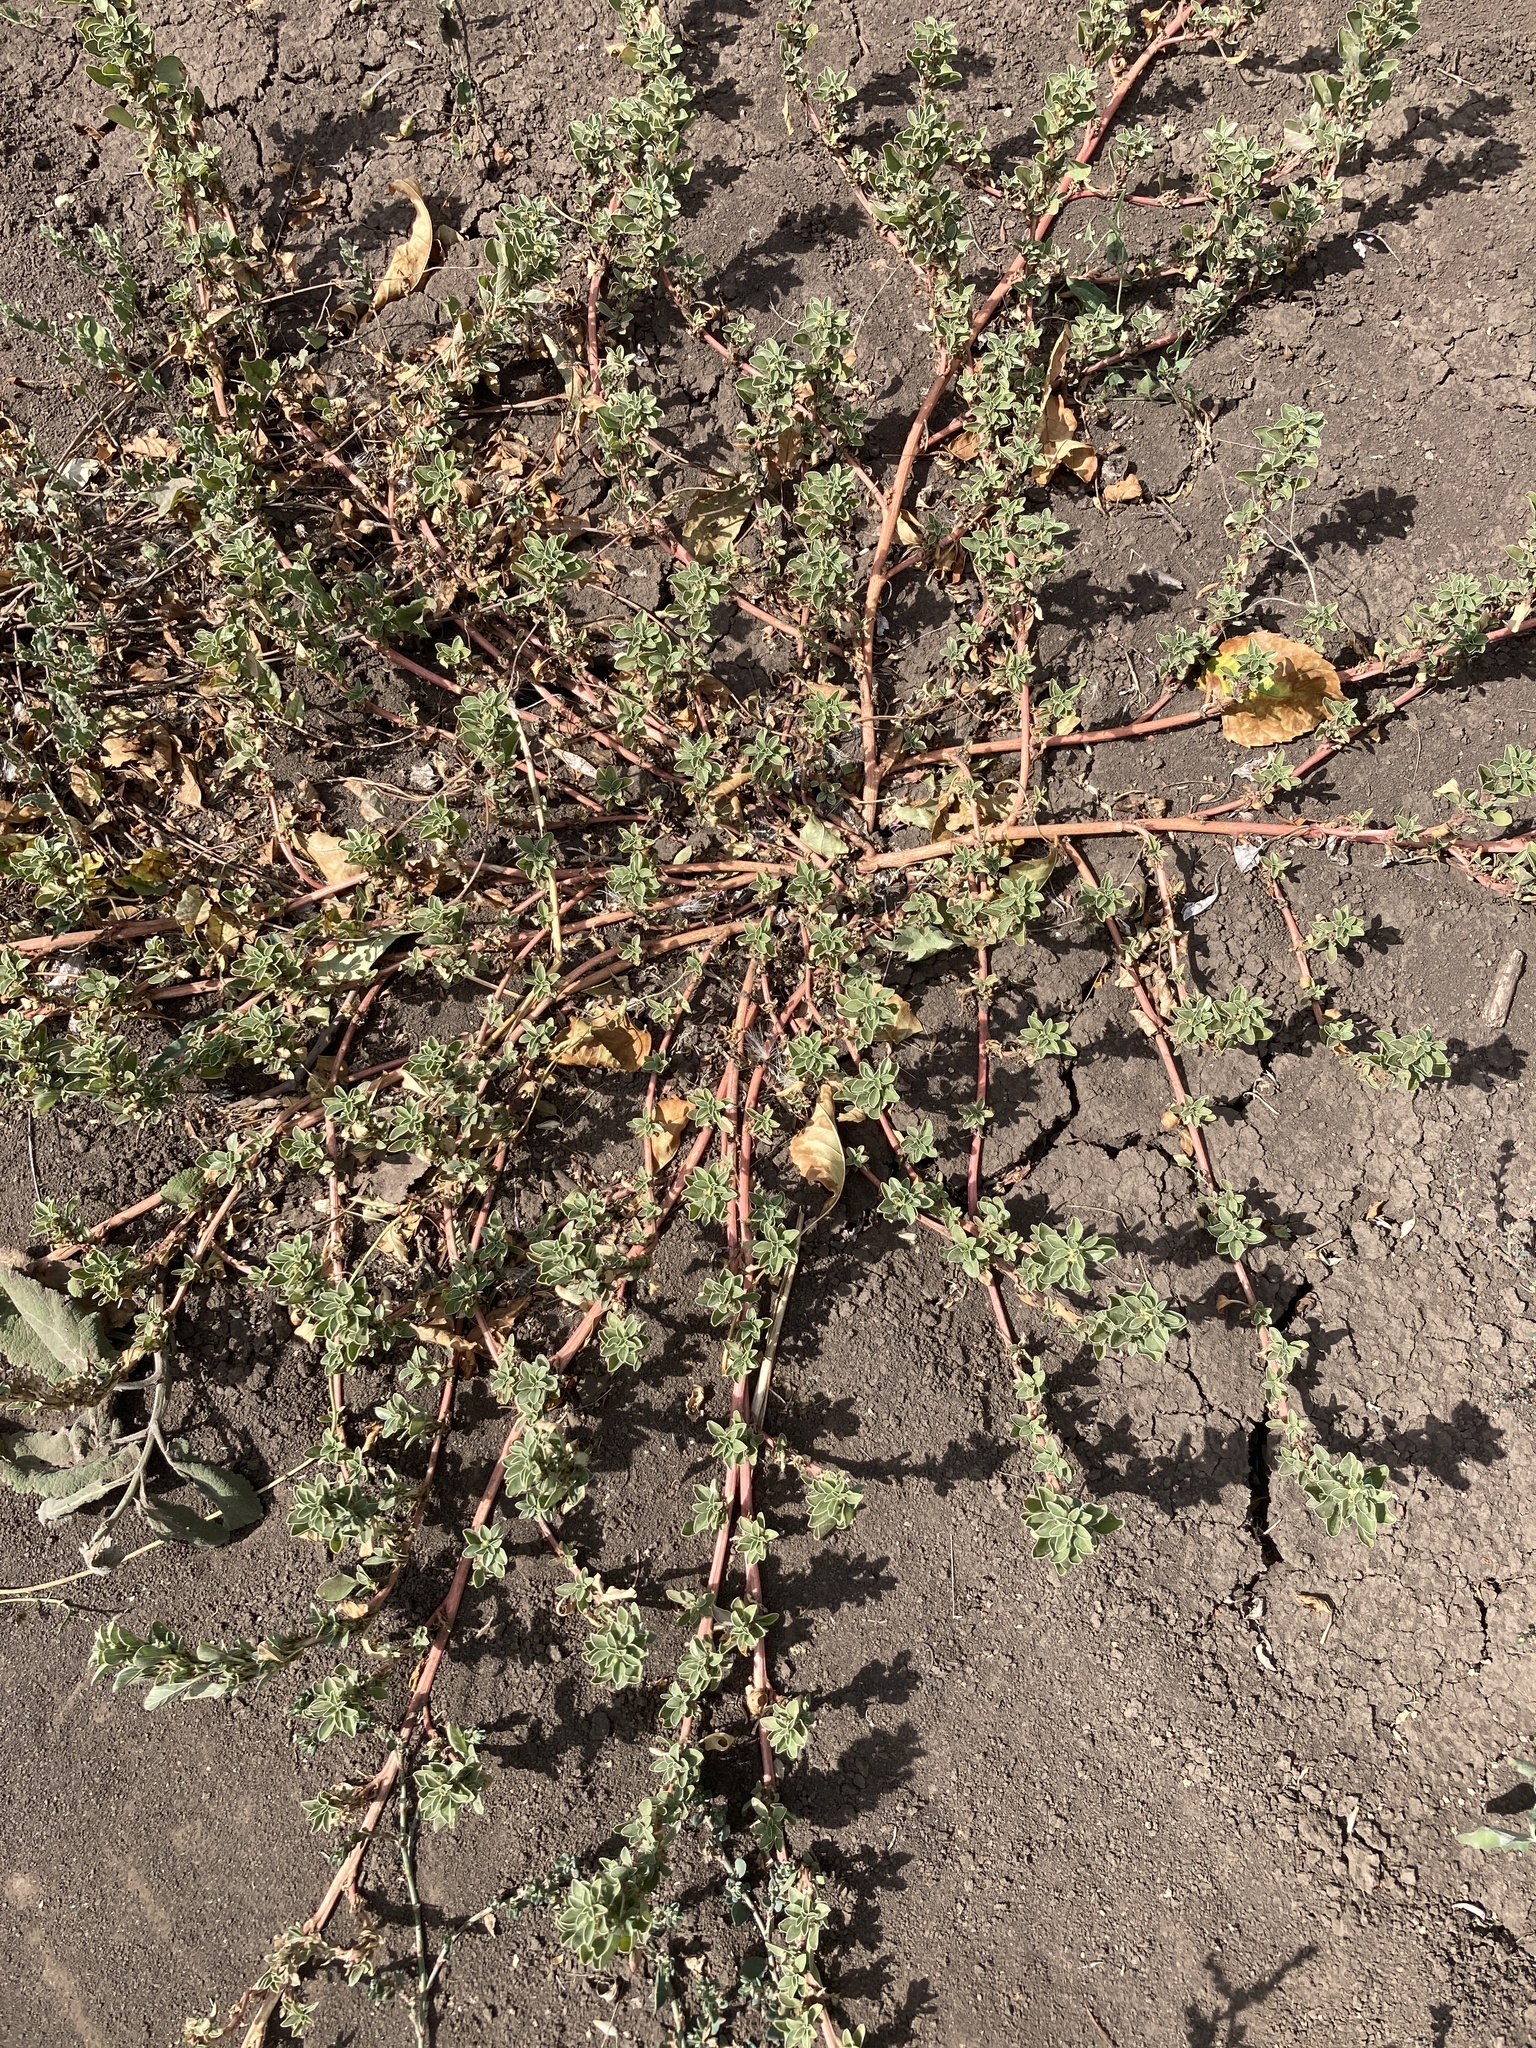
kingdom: Plantae
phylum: Tracheophyta
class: Magnoliopsida
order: Caryophyllales
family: Amaranthaceae
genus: Amaranthus
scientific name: Amaranthus blitoides
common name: Prostrate pigweed
